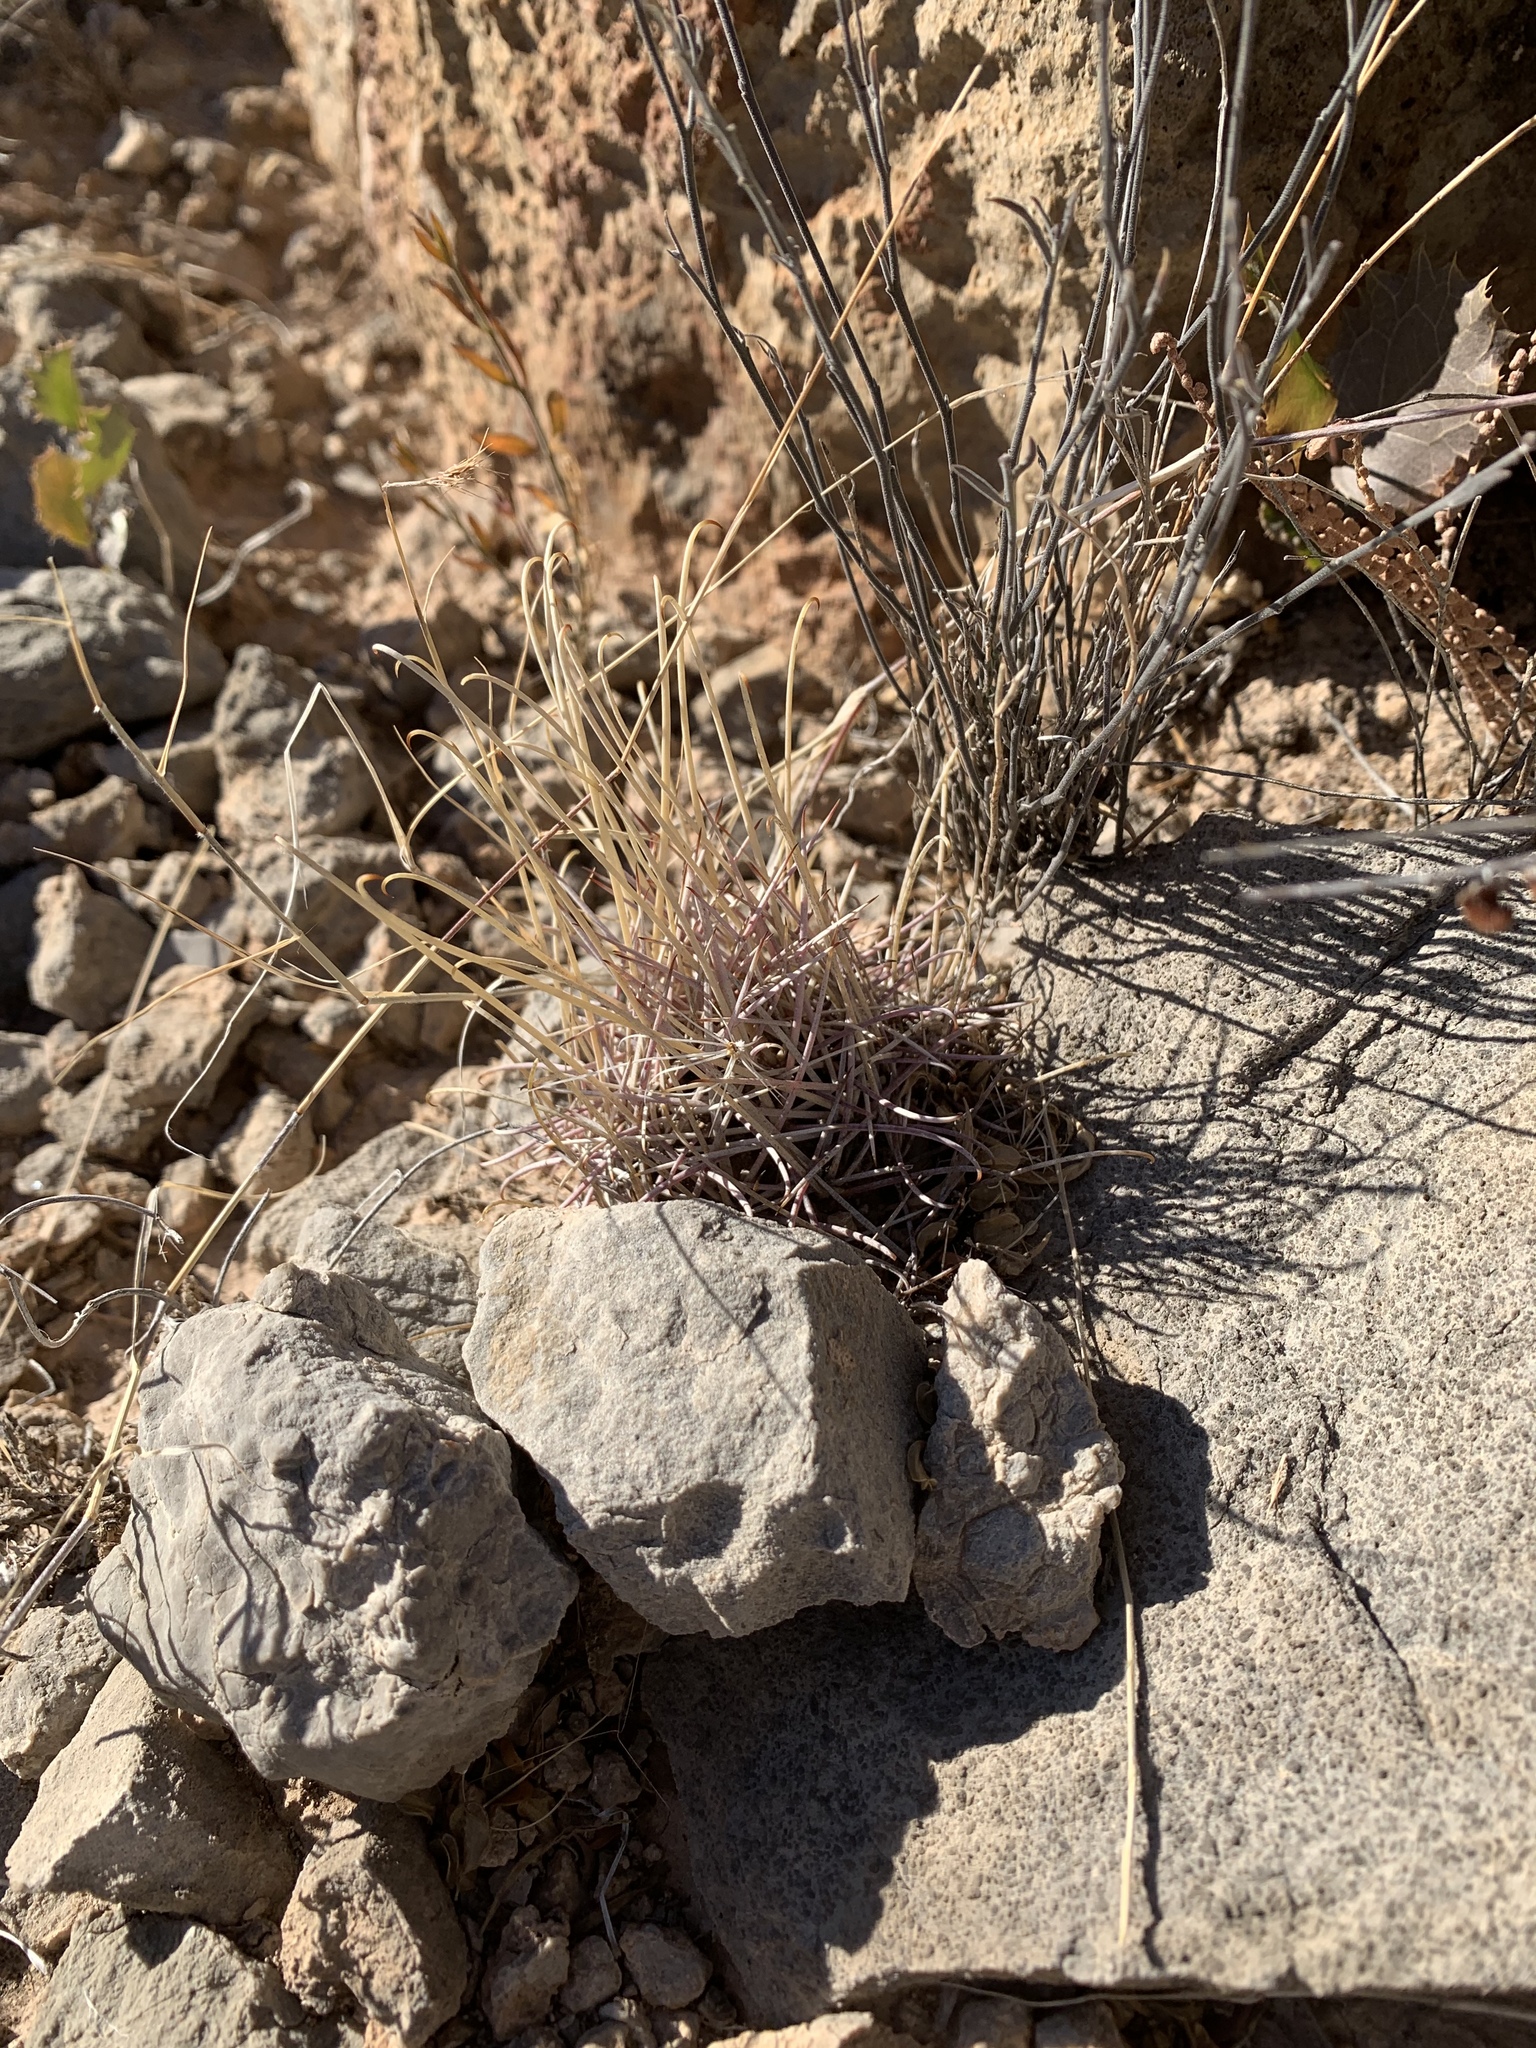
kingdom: Plantae
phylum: Tracheophyta
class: Magnoliopsida
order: Caryophyllales
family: Cactaceae
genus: Ferocactus
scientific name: Ferocactus uncinatus
